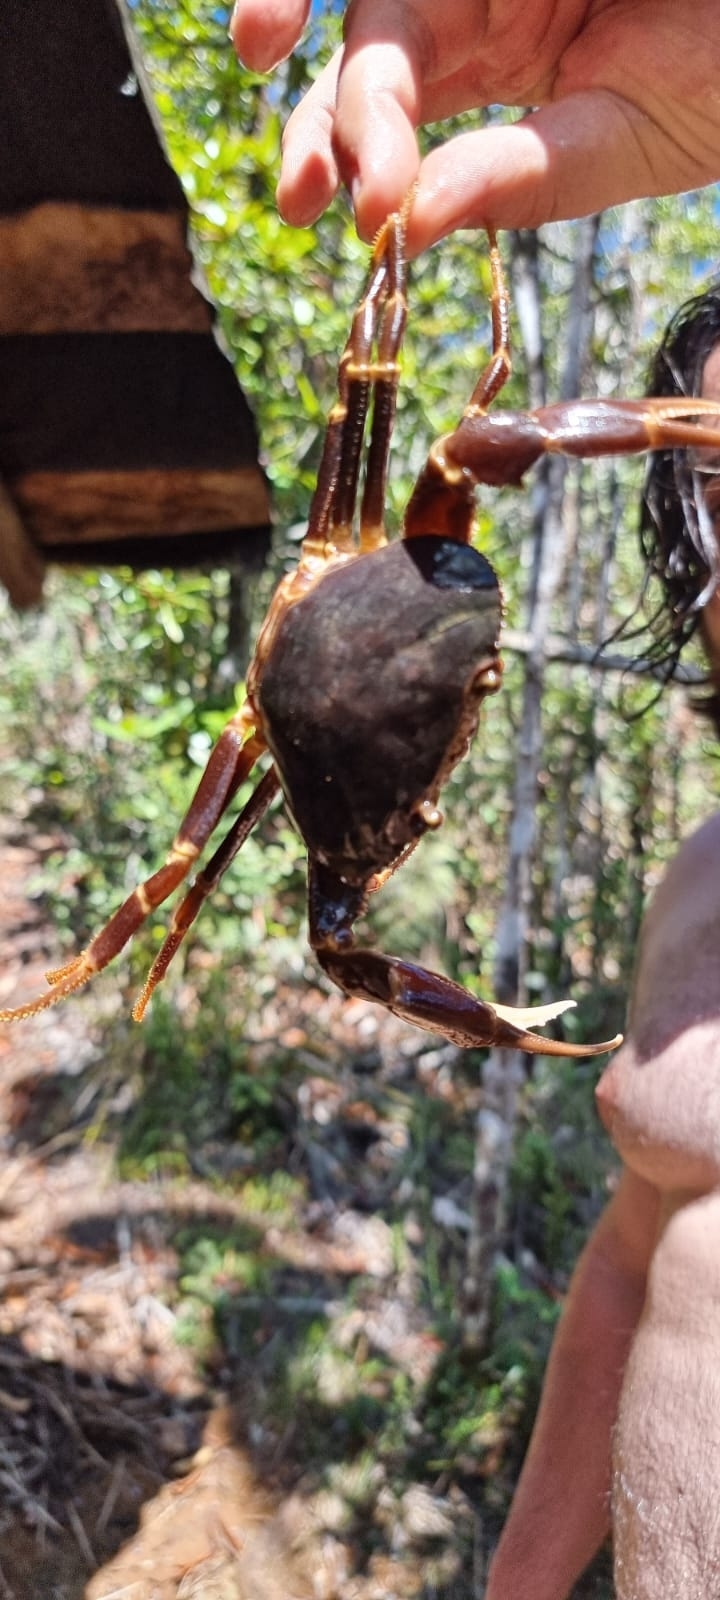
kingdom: Animalia
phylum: Arthropoda
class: Malacostraca
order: Decapoda
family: Epiloboceridae
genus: Epilobocera
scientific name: Epilobocera cubensis
